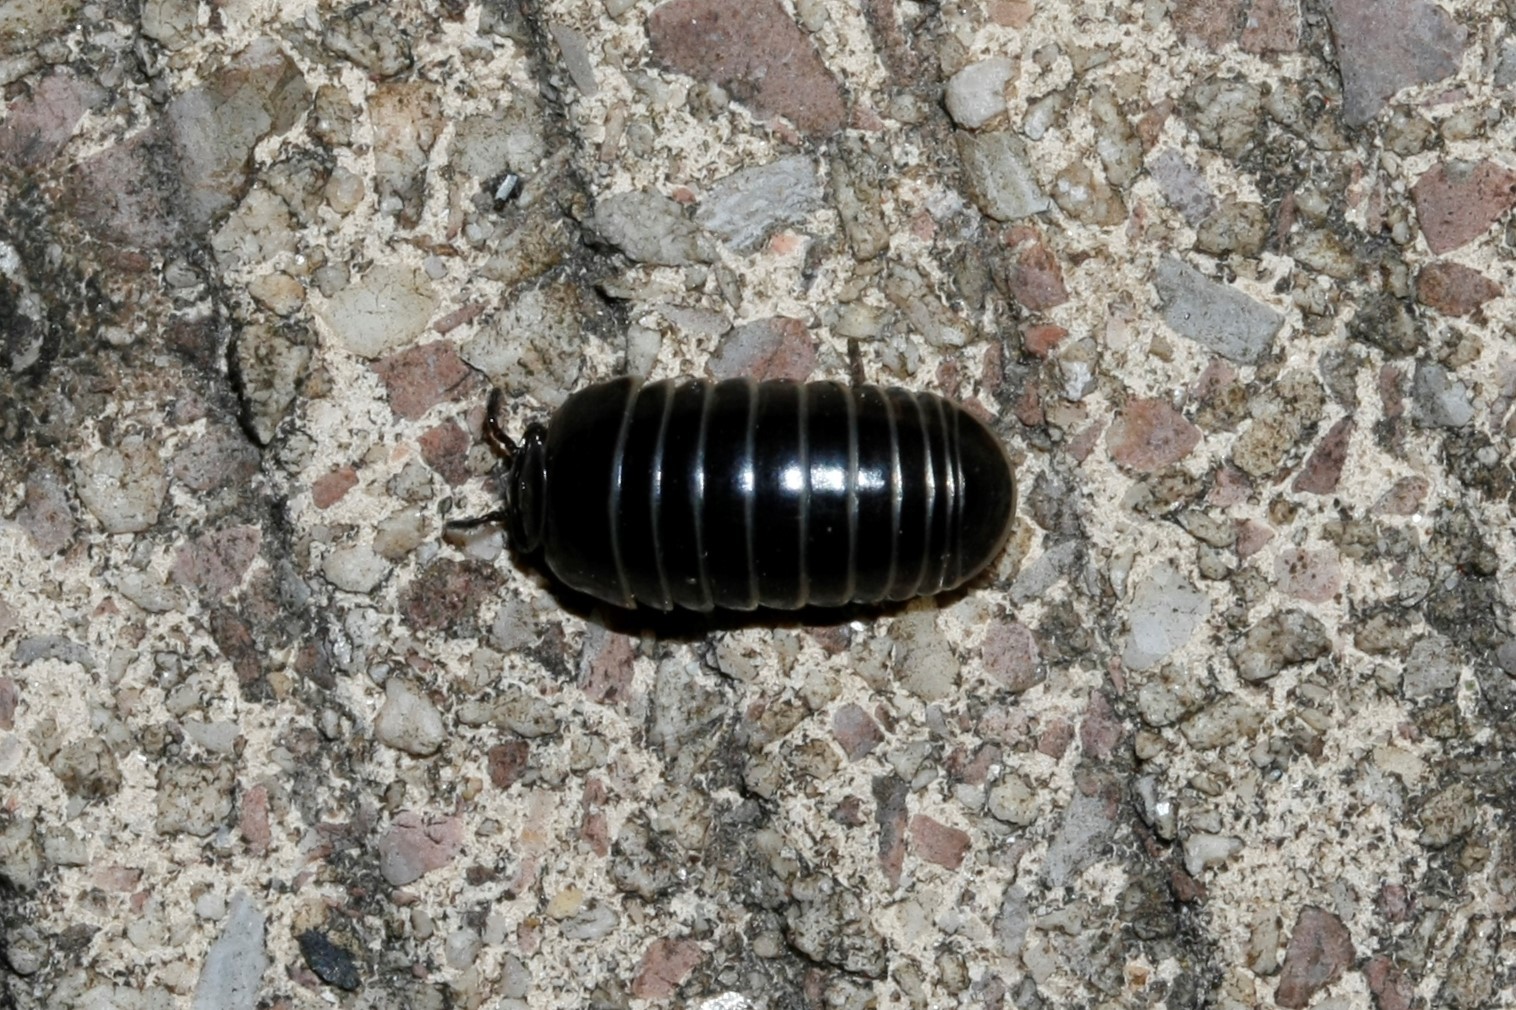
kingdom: Animalia
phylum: Arthropoda
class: Diplopoda
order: Glomerida
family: Glomeridae
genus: Glomeris
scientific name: Glomeris marginata
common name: Bordered pill millipede
